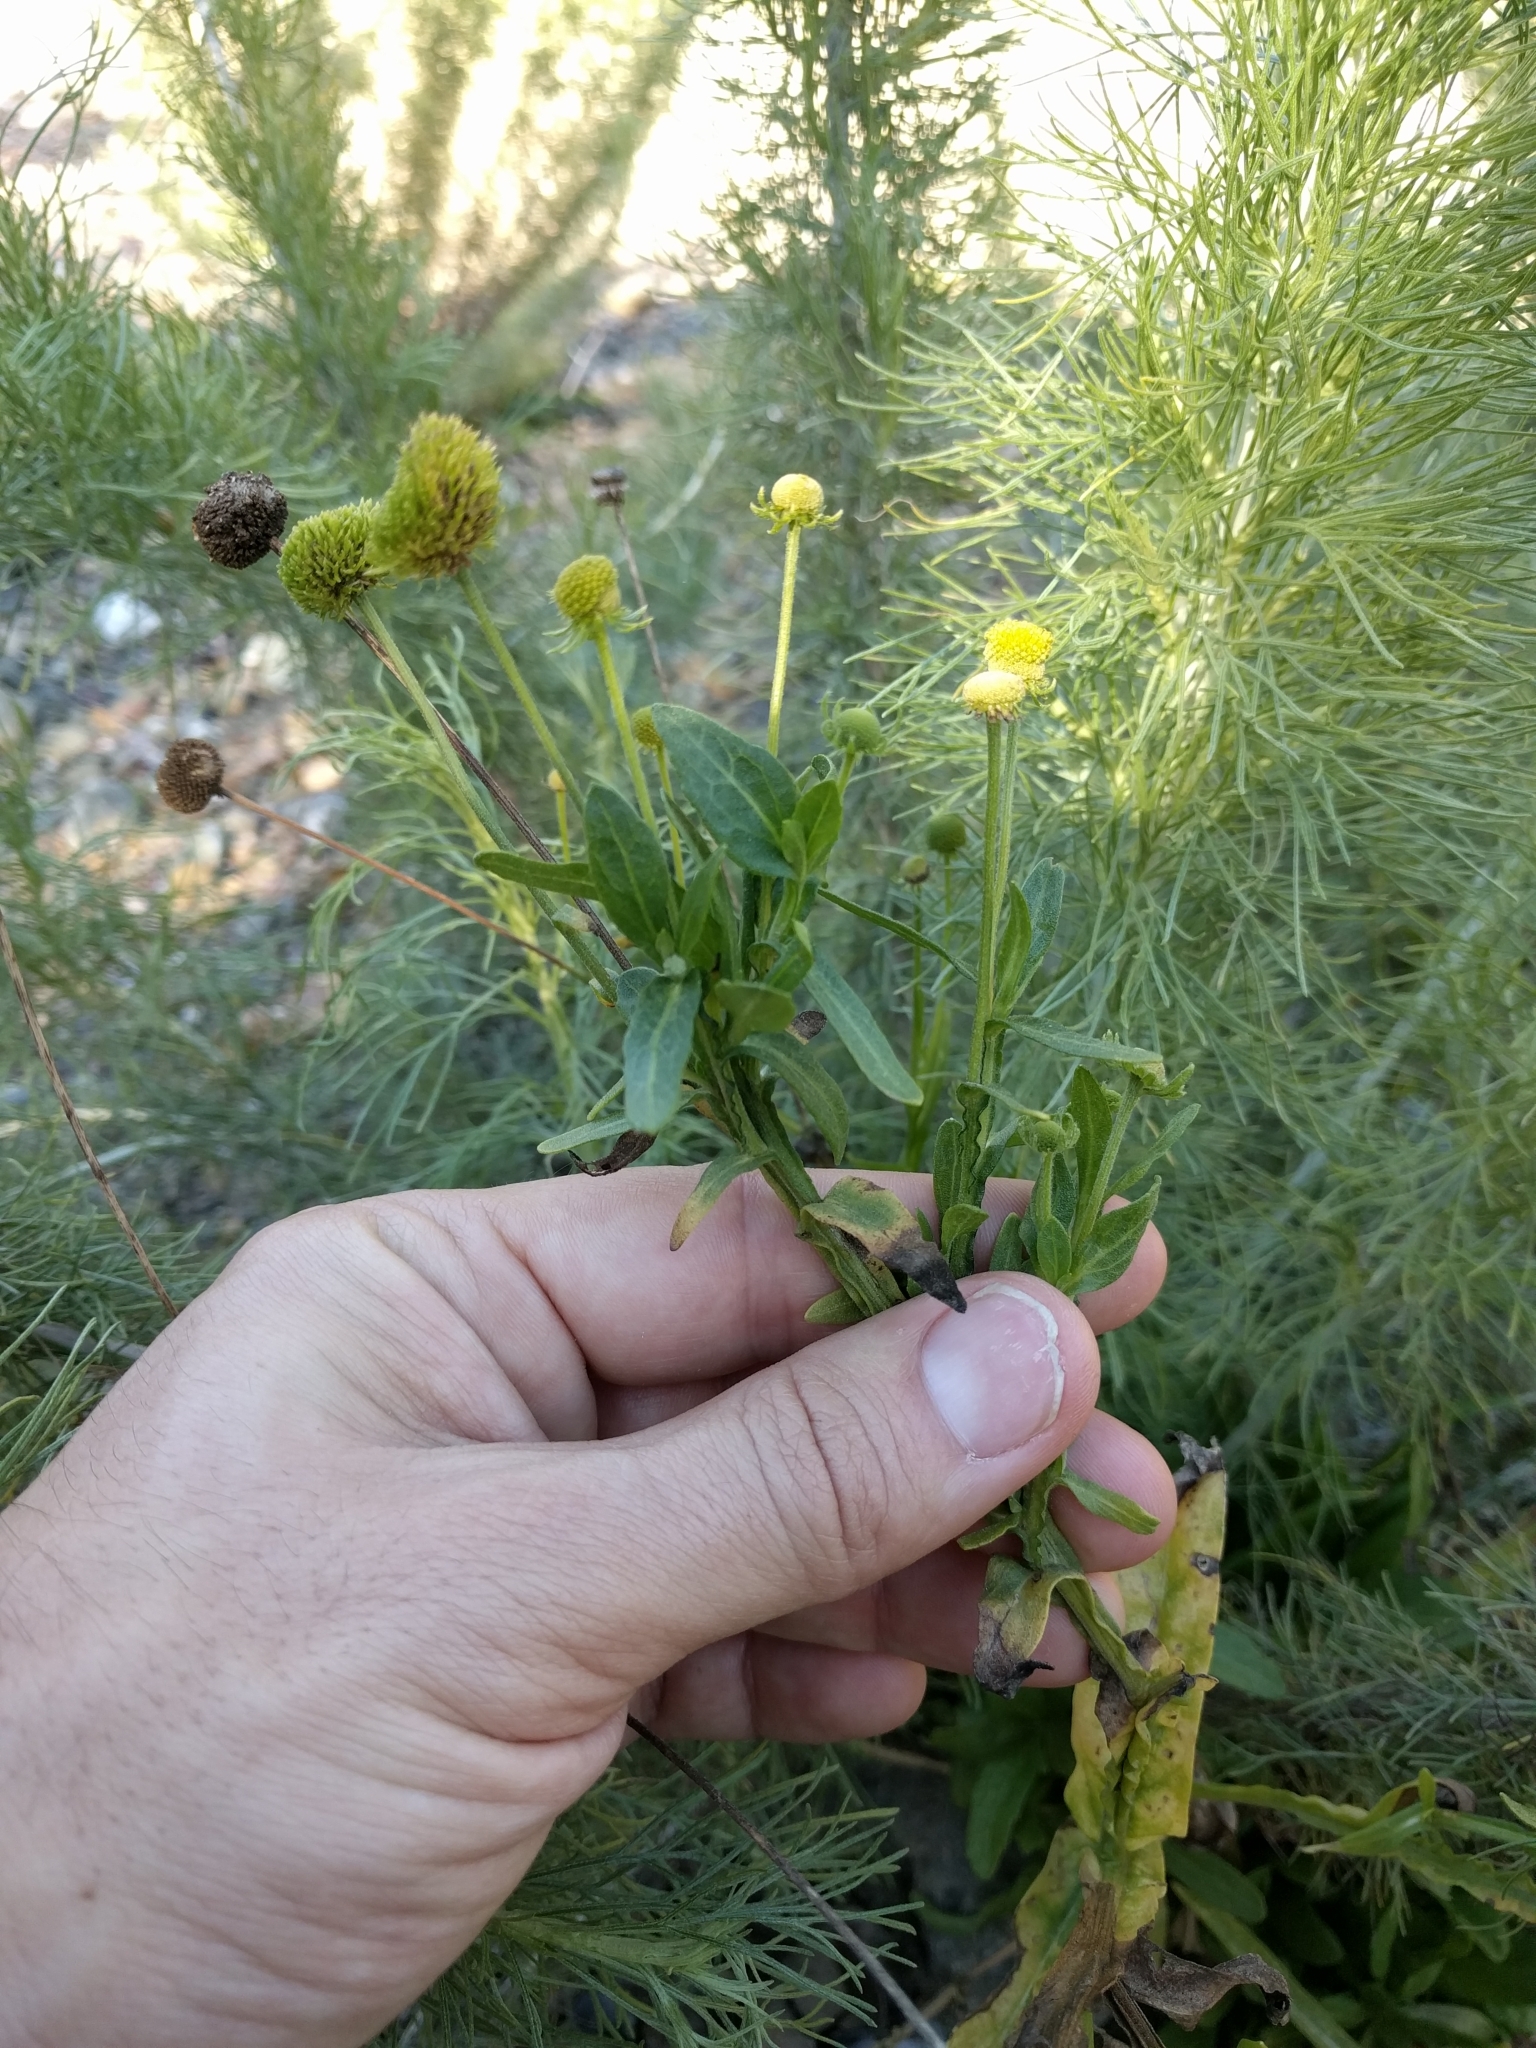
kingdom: Plantae
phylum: Tracheophyta
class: Magnoliopsida
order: Asterales
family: Asteraceae
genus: Helenium
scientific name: Helenium puberulum
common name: Sneezewort
